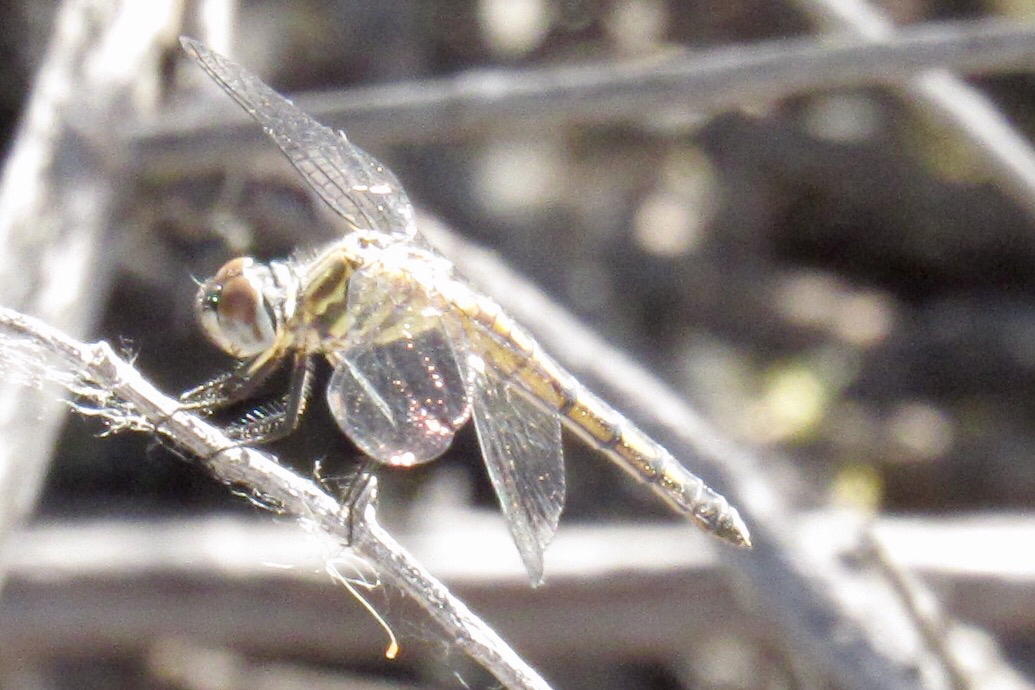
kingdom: Animalia
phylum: Arthropoda
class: Insecta
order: Odonata
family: Libellulidae
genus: Pachydiplax
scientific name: Pachydiplax longipennis
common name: Blue dasher
